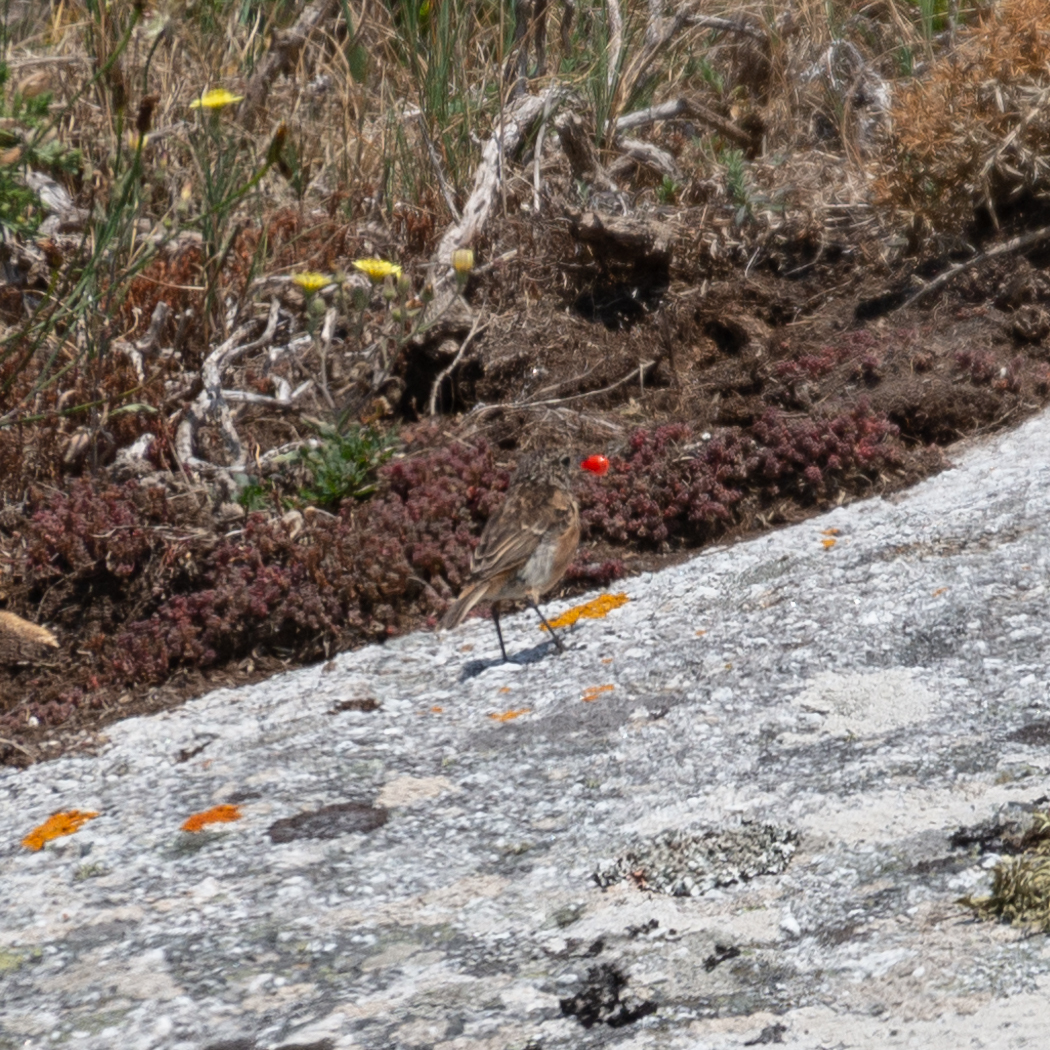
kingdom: Animalia
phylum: Chordata
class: Aves
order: Passeriformes
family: Muscicapidae
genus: Saxicola
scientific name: Saxicola rubicola
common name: European stonechat
